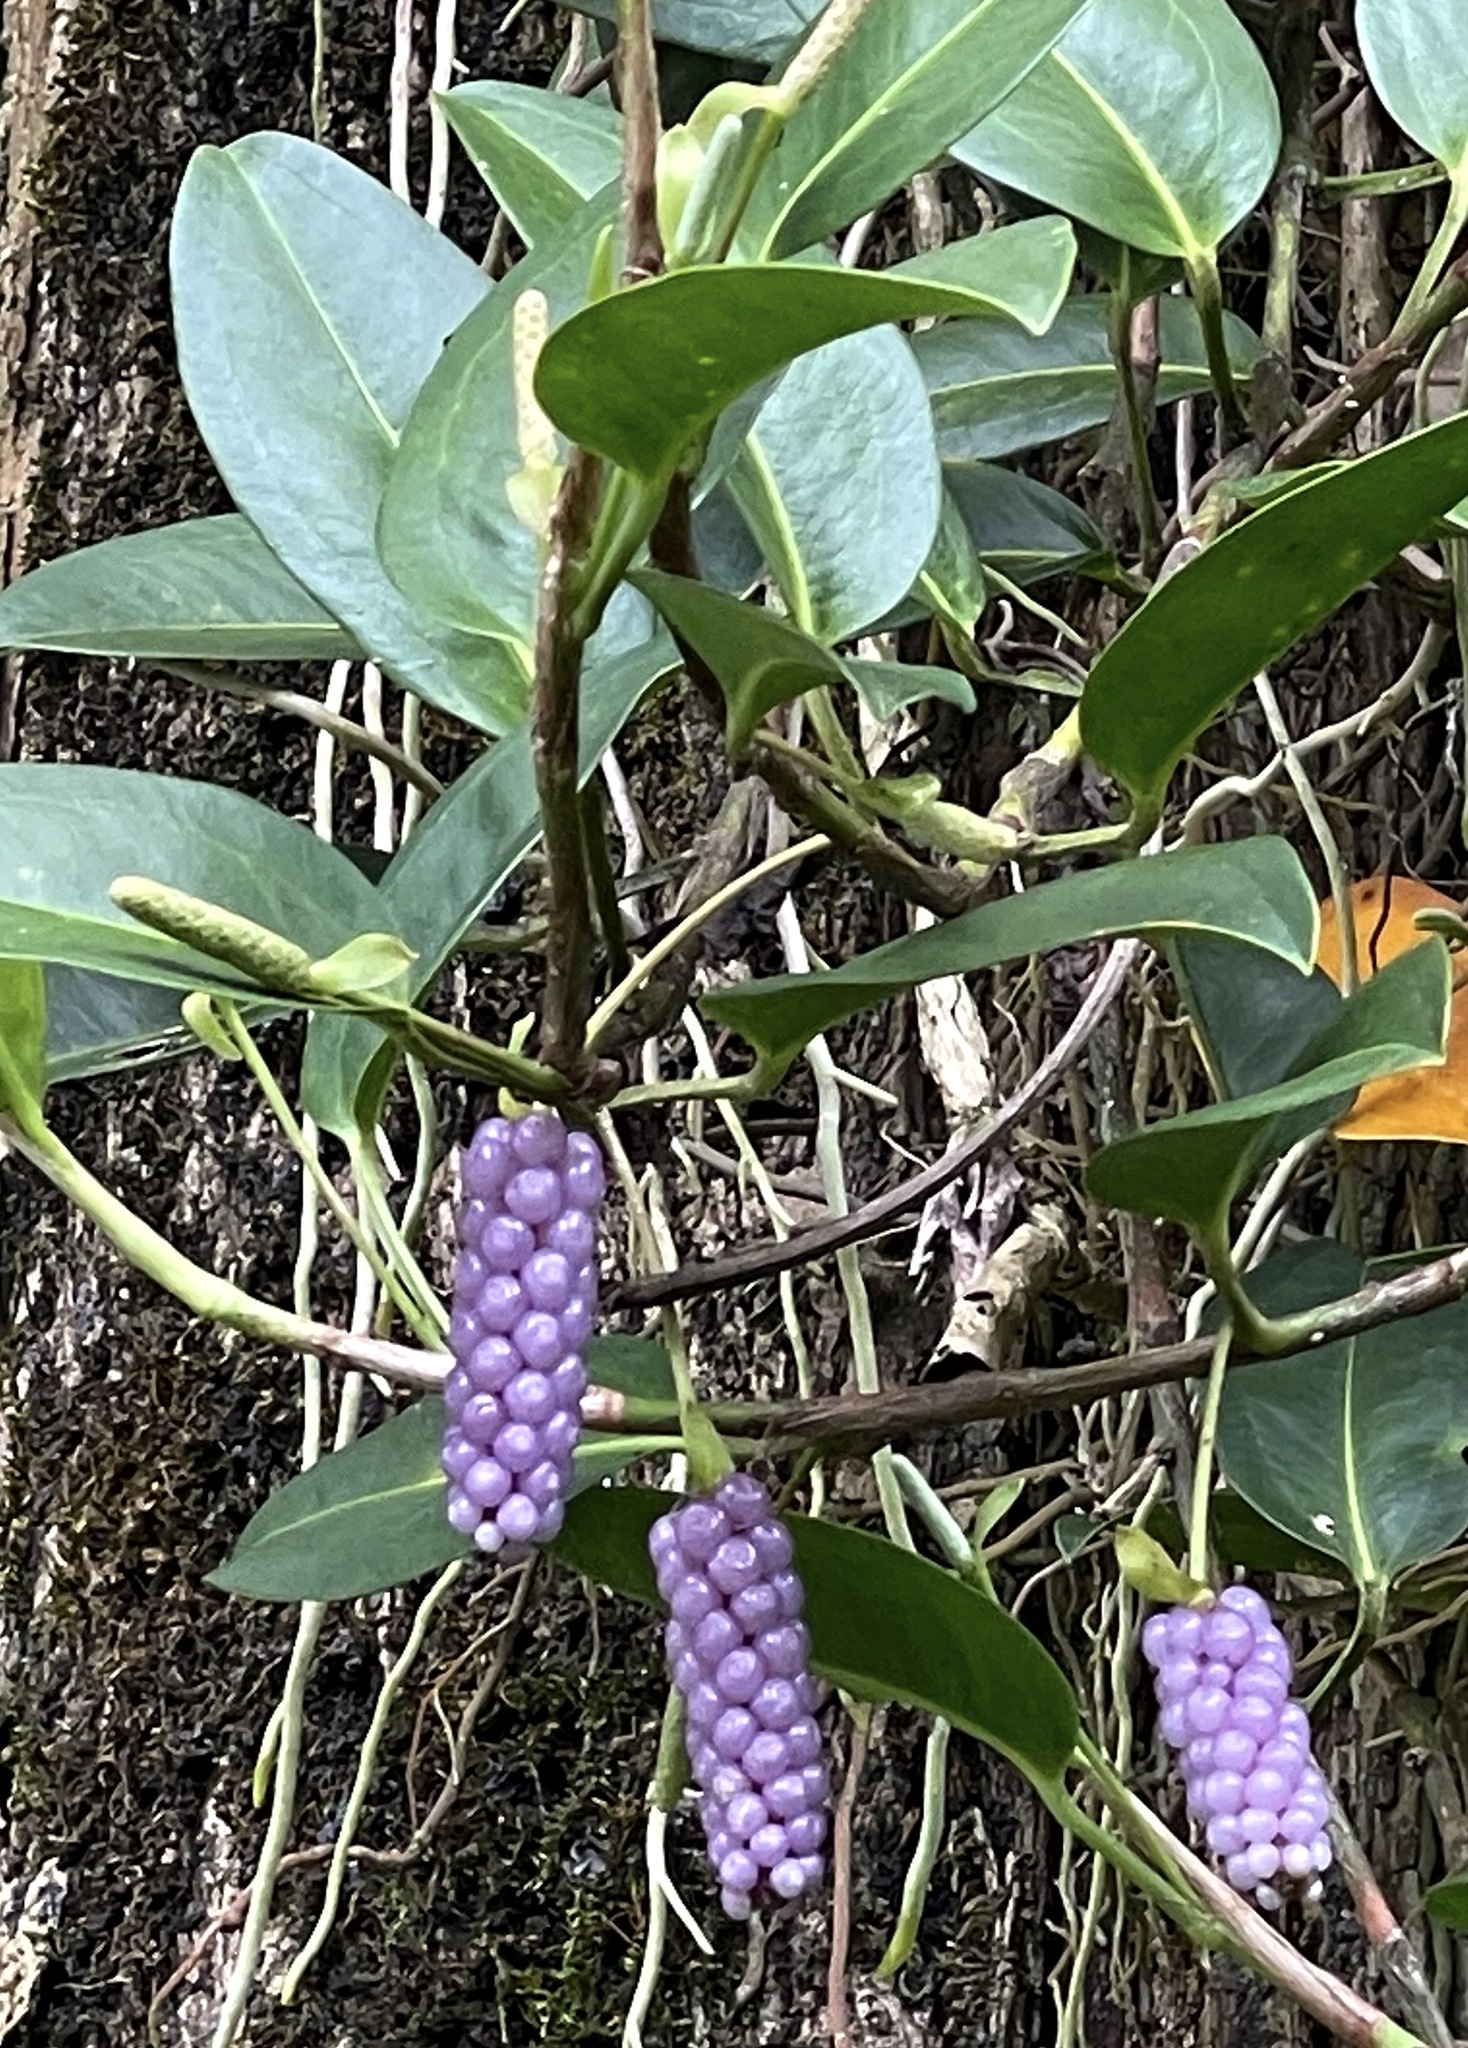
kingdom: Plantae
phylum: Tracheophyta
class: Liliopsida
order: Alismatales
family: Araceae
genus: Anthurium
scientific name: Anthurium scandens
